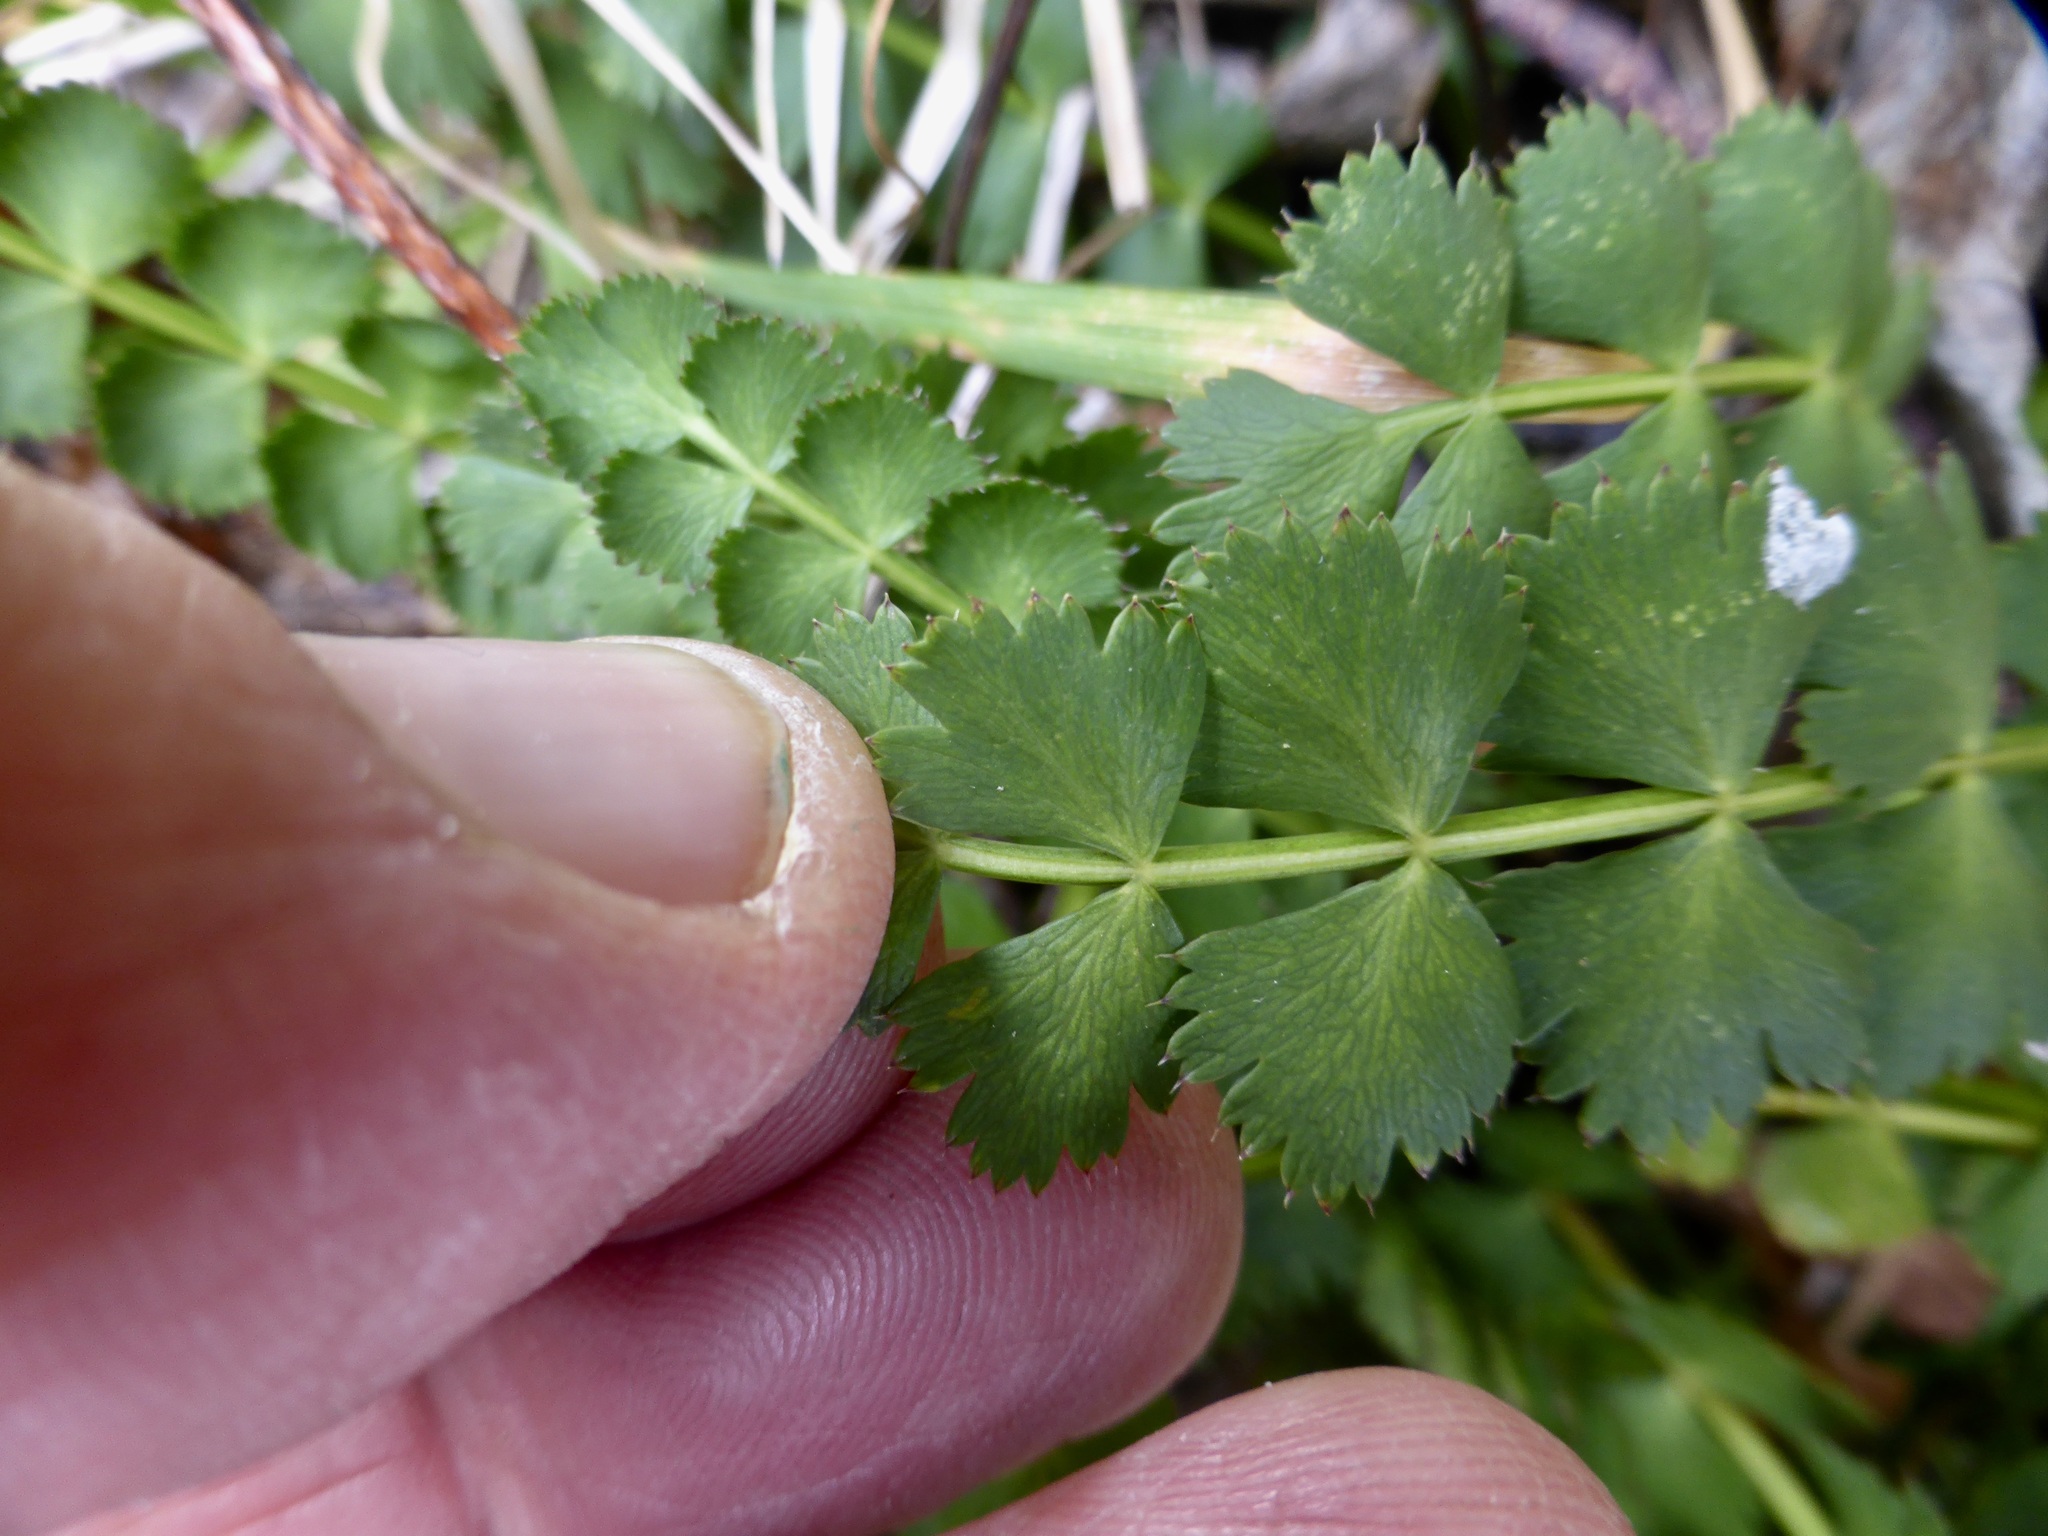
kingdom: Plantae
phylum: Tracheophyta
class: Magnoliopsida
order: Apiales
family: Apiaceae
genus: Anisotome
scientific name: Anisotome aromatica
